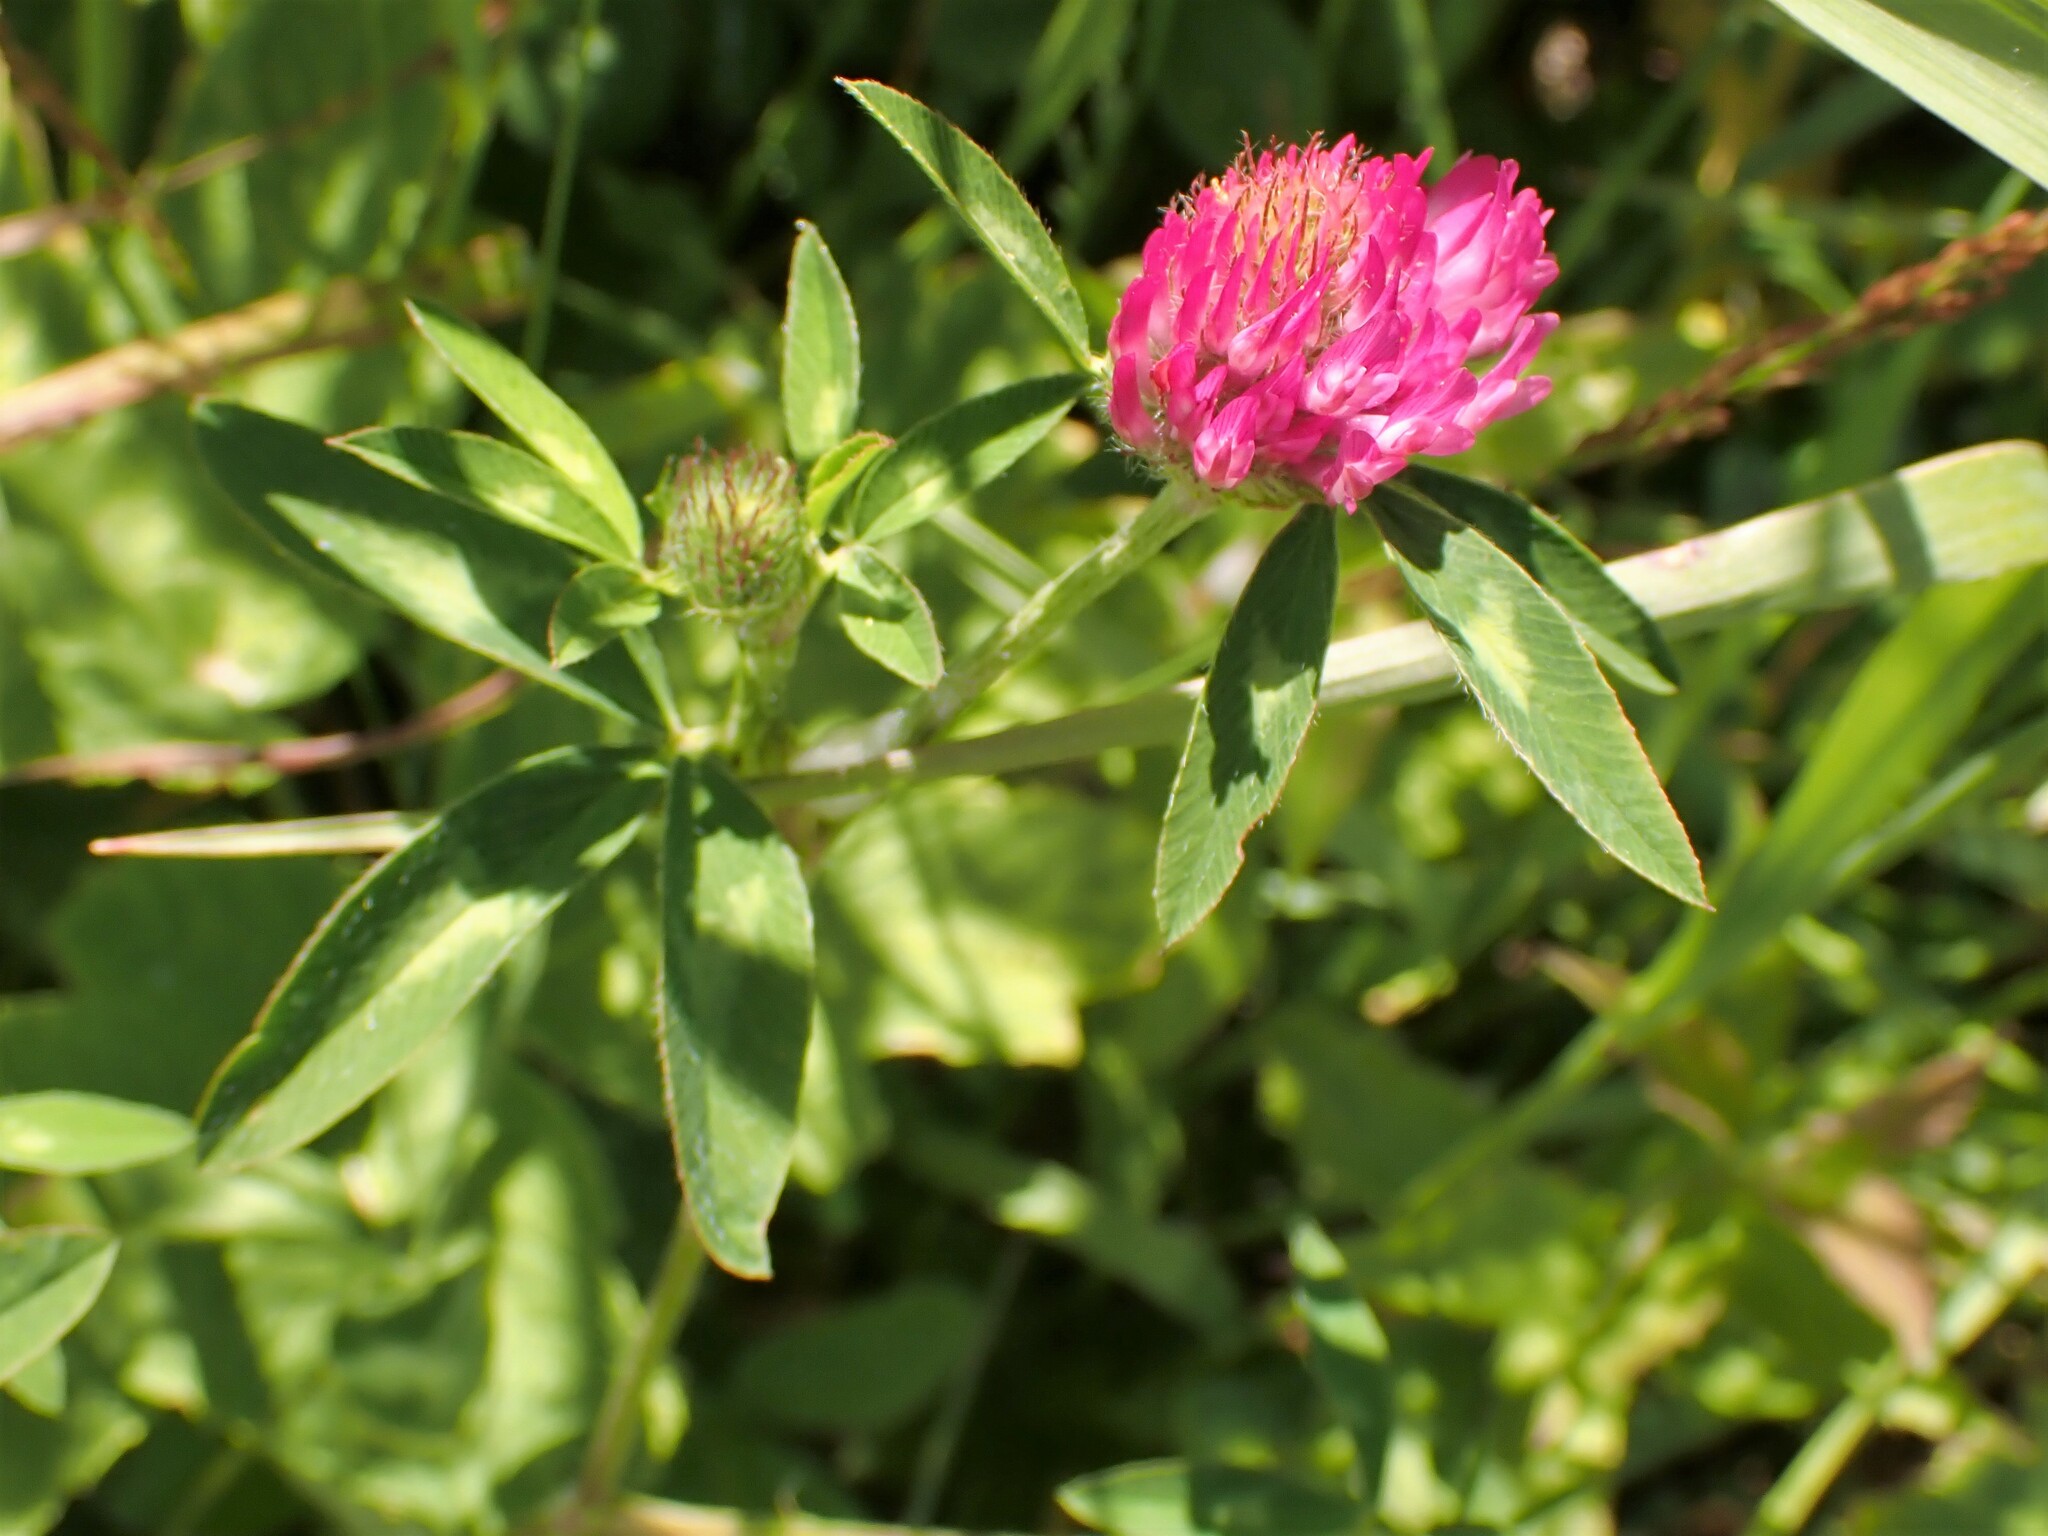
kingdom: Plantae
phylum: Tracheophyta
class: Magnoliopsida
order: Fabales
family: Fabaceae
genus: Trifolium
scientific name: Trifolium pratense
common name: Red clover
